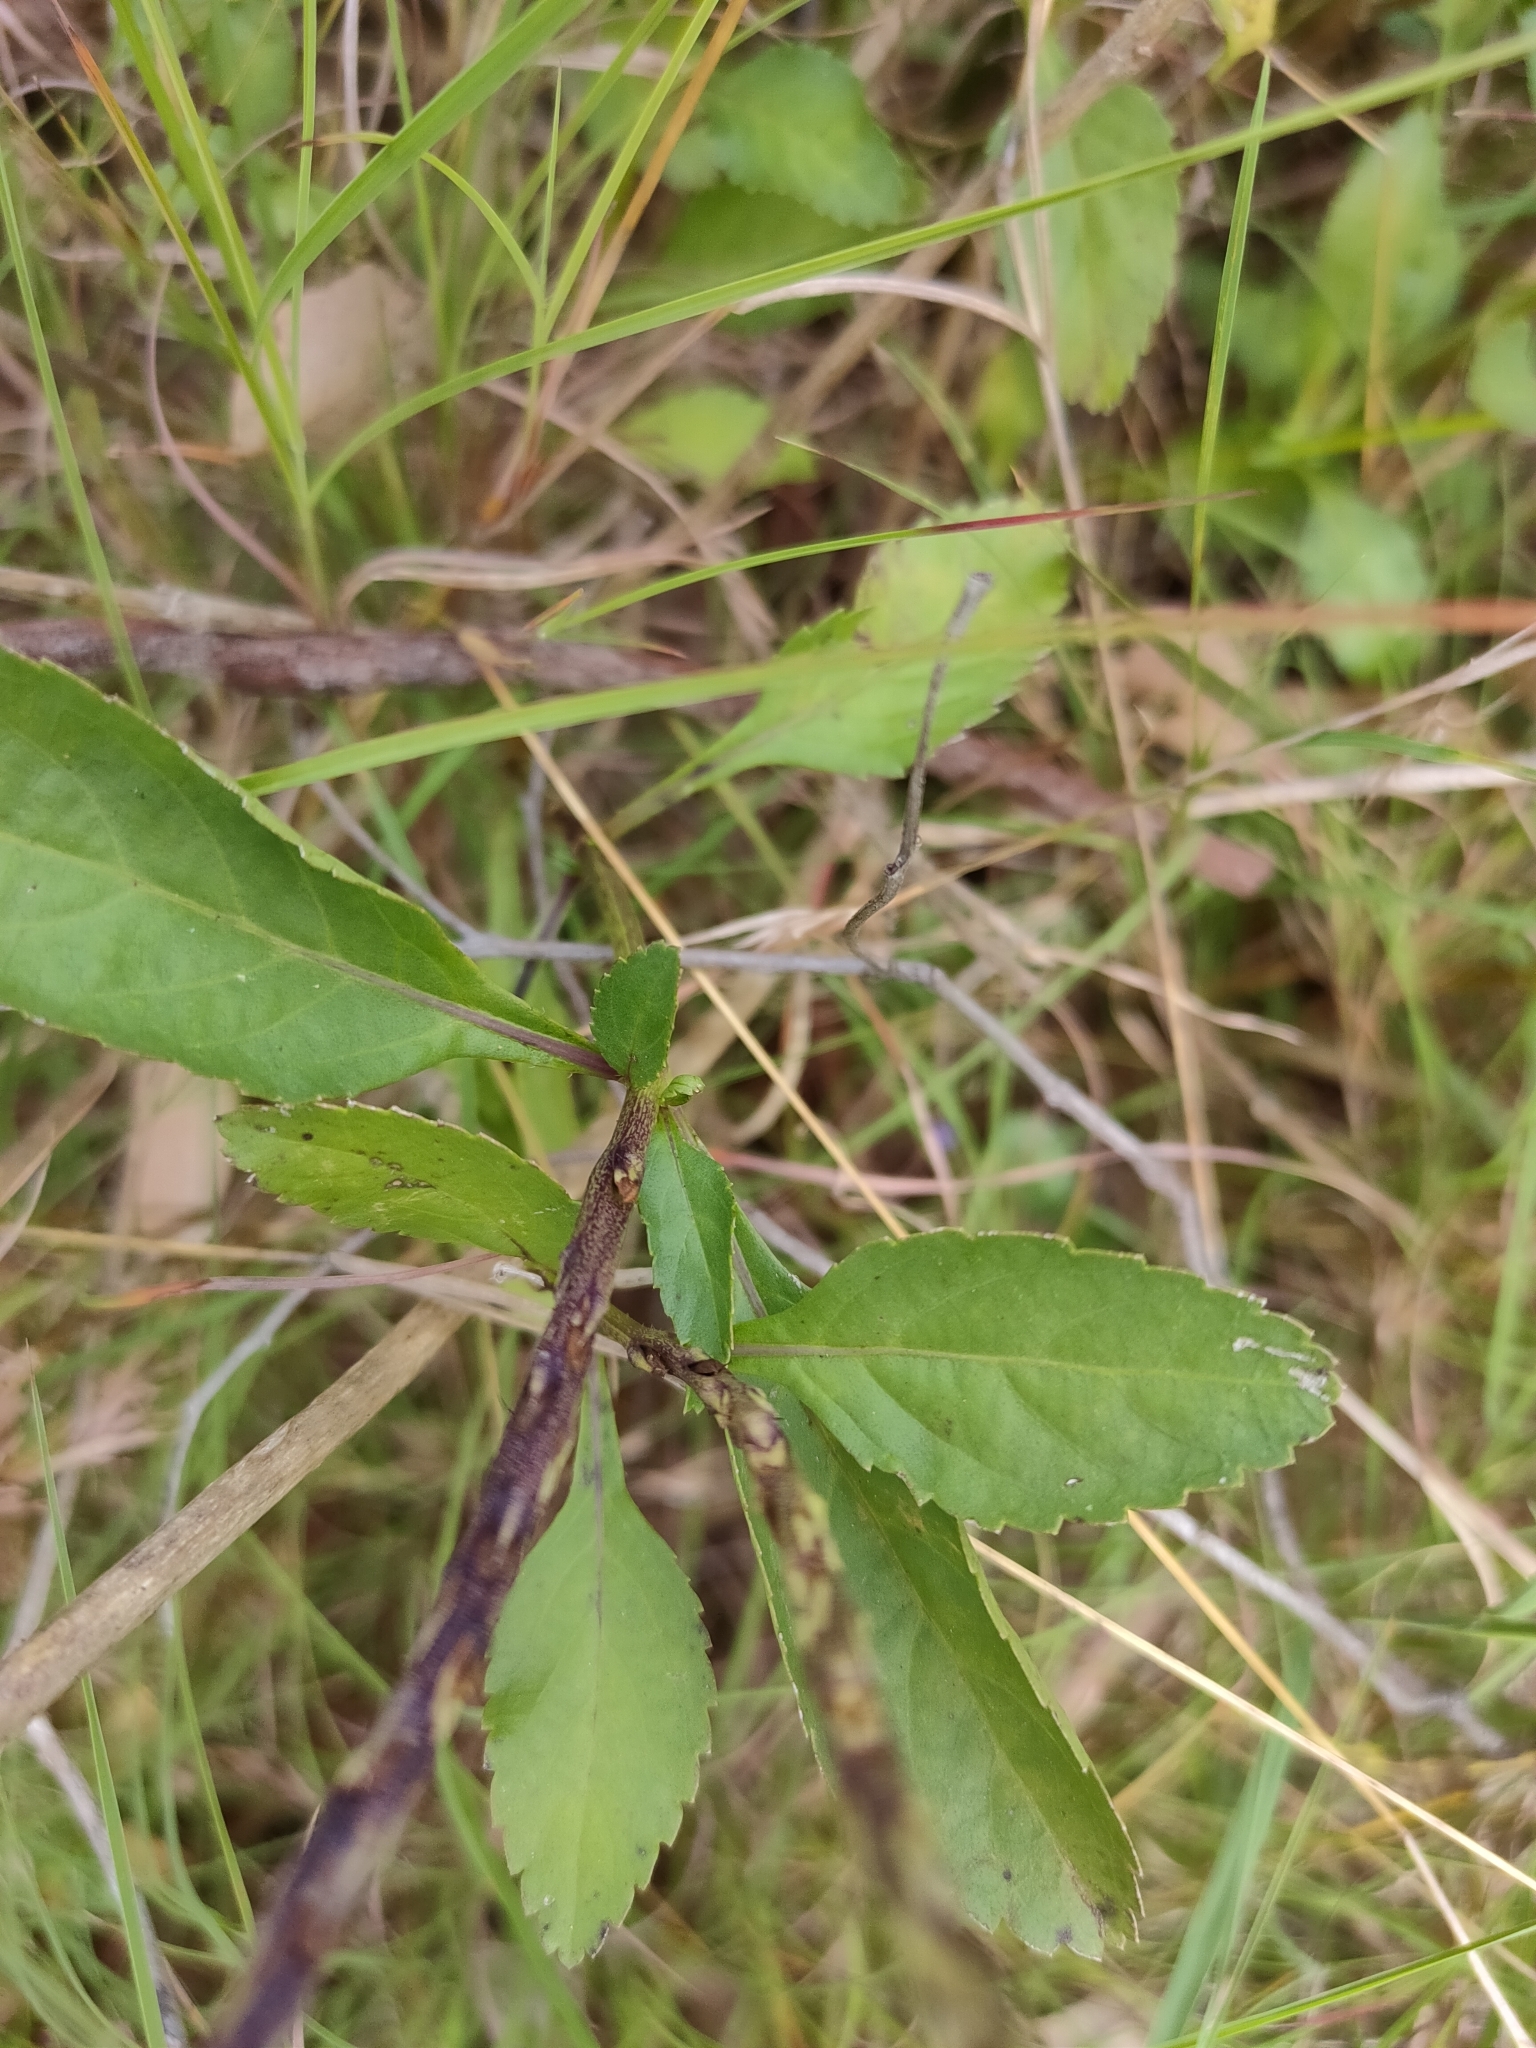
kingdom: Plantae
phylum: Tracheophyta
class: Magnoliopsida
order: Lamiales
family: Verbenaceae
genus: Stachytarpheta
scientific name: Stachytarpheta jamaicensis
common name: Light-blue snakeweed
